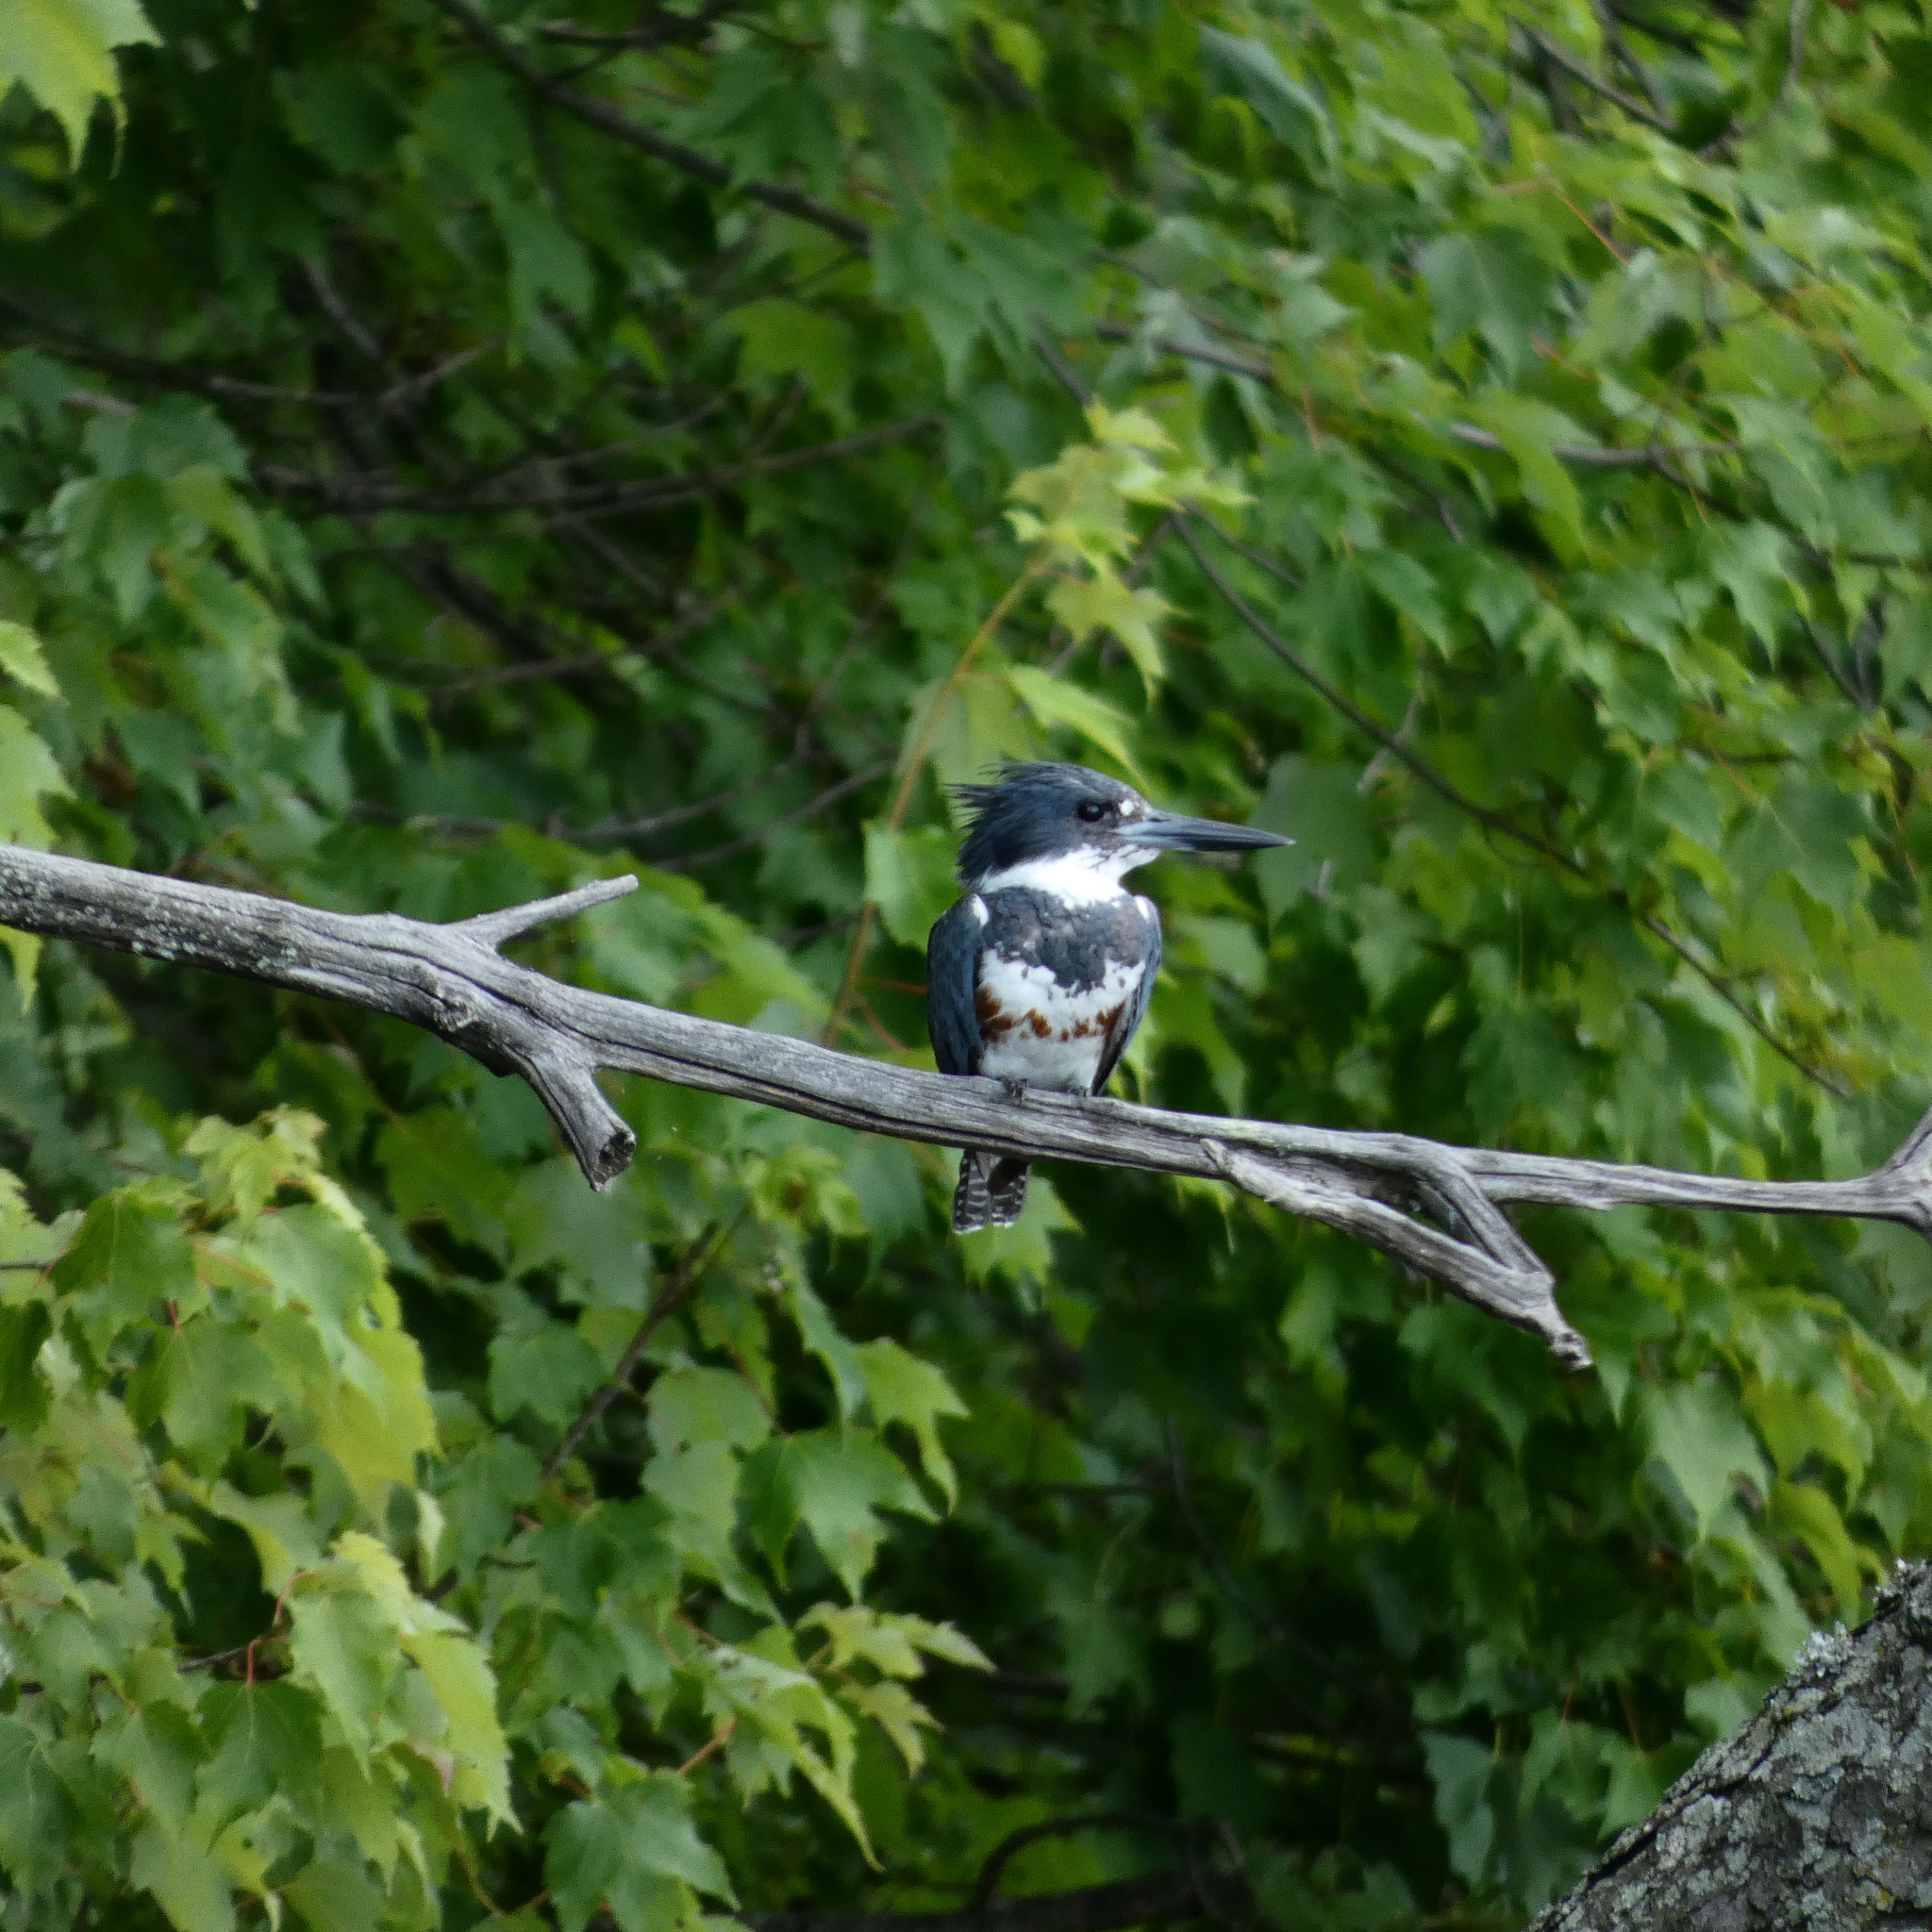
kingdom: Animalia
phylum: Chordata
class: Aves
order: Coraciiformes
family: Alcedinidae
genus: Megaceryle
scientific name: Megaceryle alcyon
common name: Belted kingfisher
